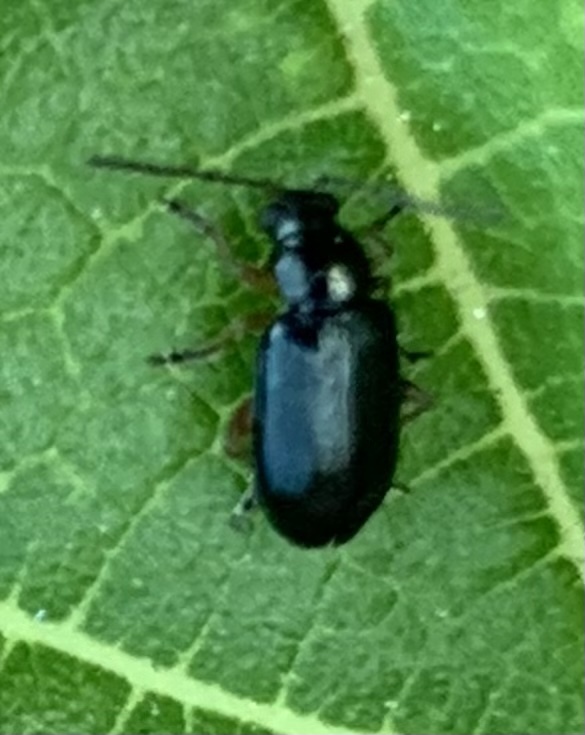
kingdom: Animalia
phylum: Arthropoda
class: Insecta
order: Coleoptera
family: Chrysomelidae
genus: Lysathia
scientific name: Lysathia ludoviciana
